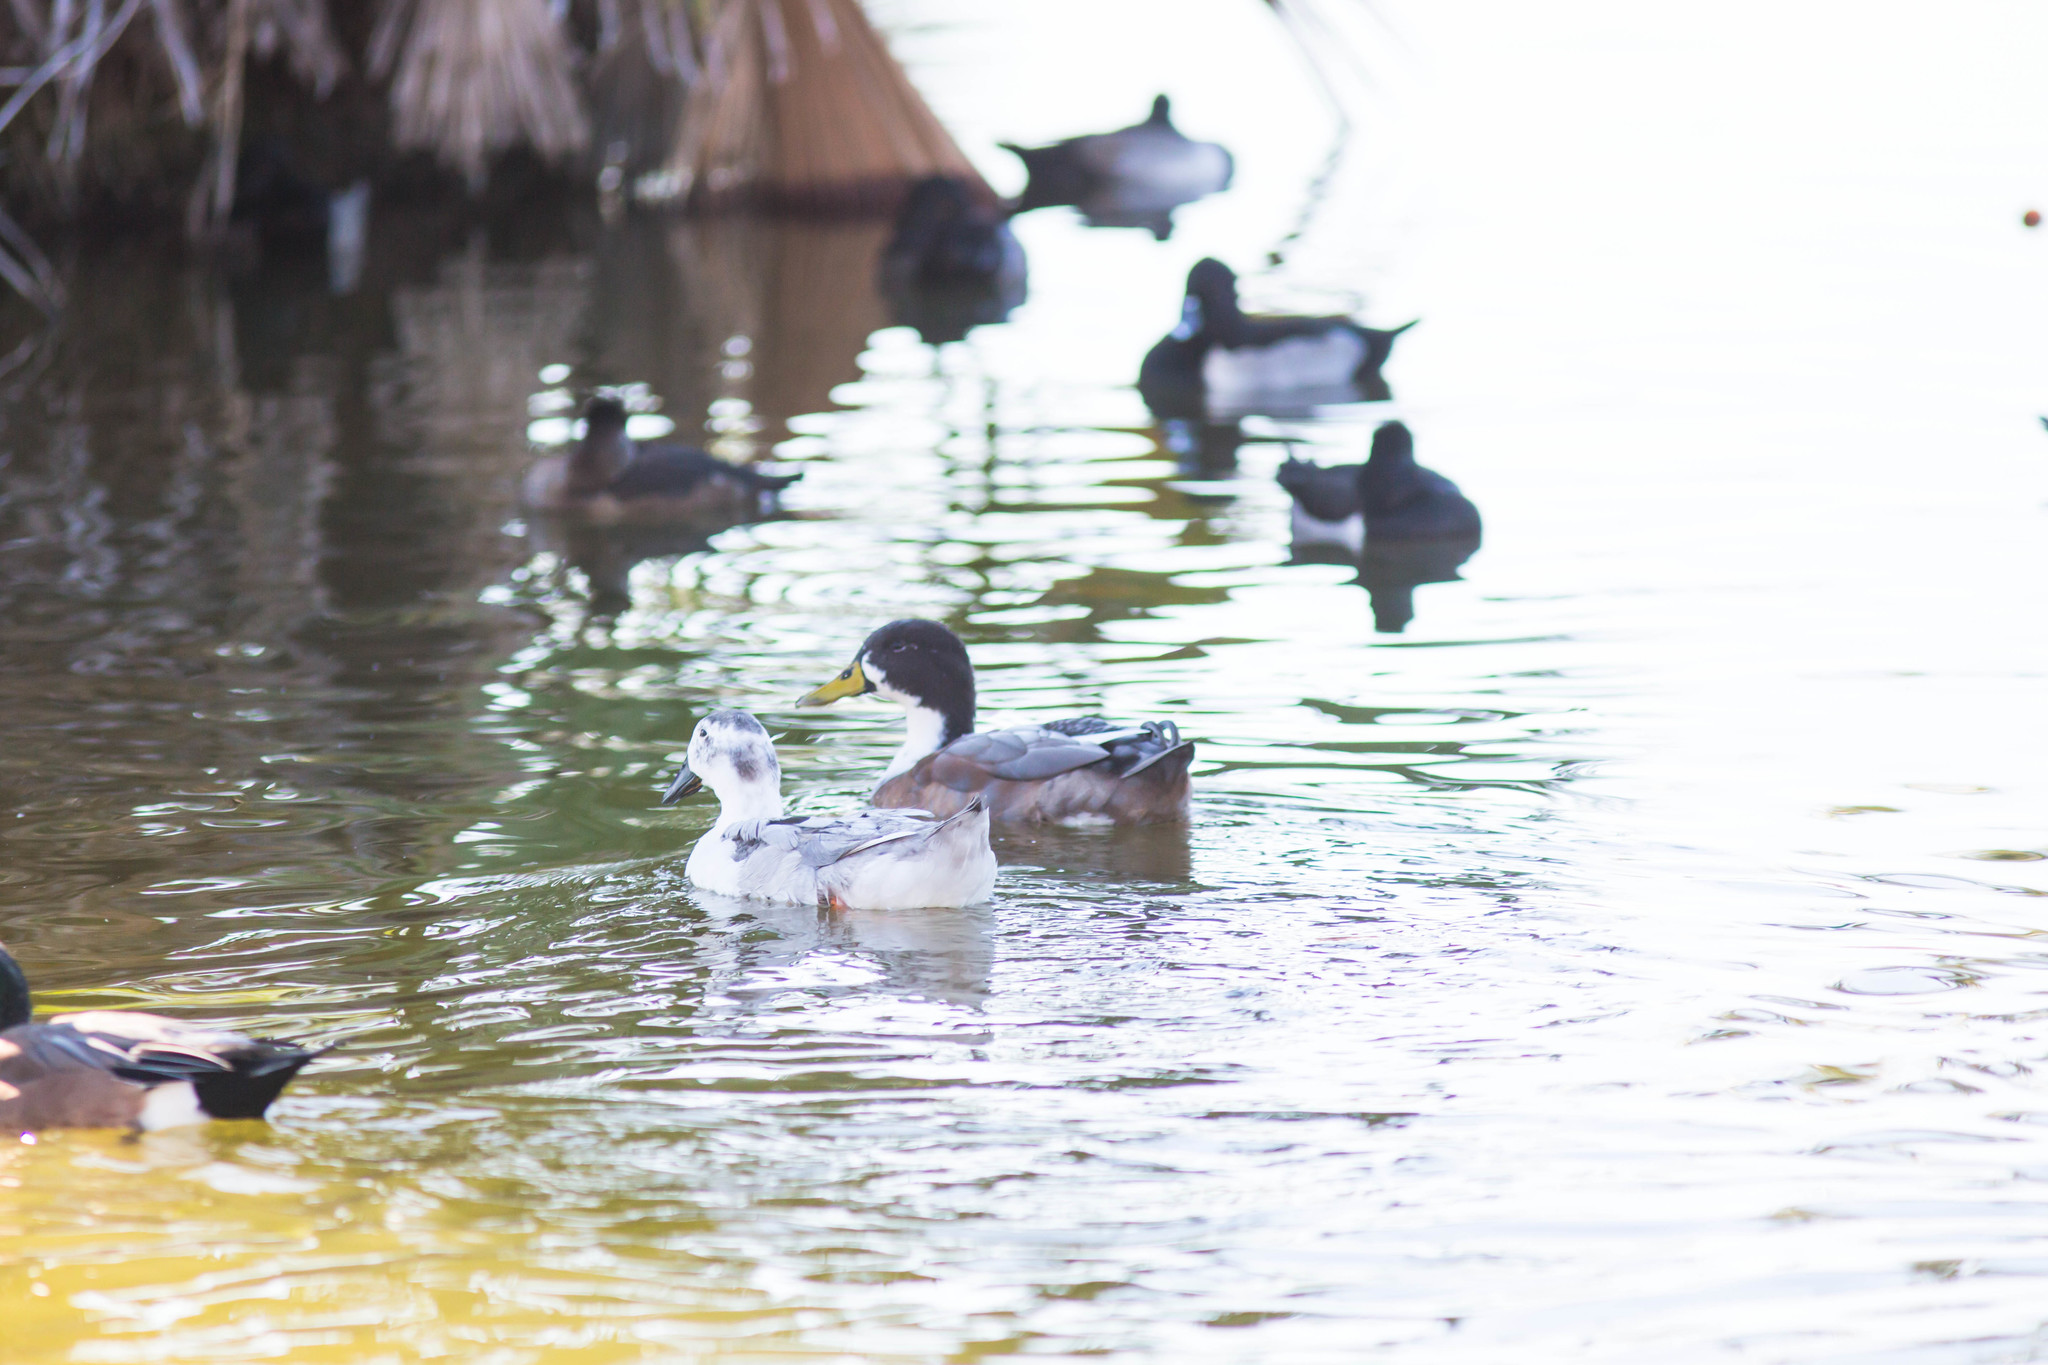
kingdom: Animalia
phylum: Chordata
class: Aves
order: Anseriformes
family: Anatidae
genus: Anas
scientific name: Anas platyrhynchos
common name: Mallard
